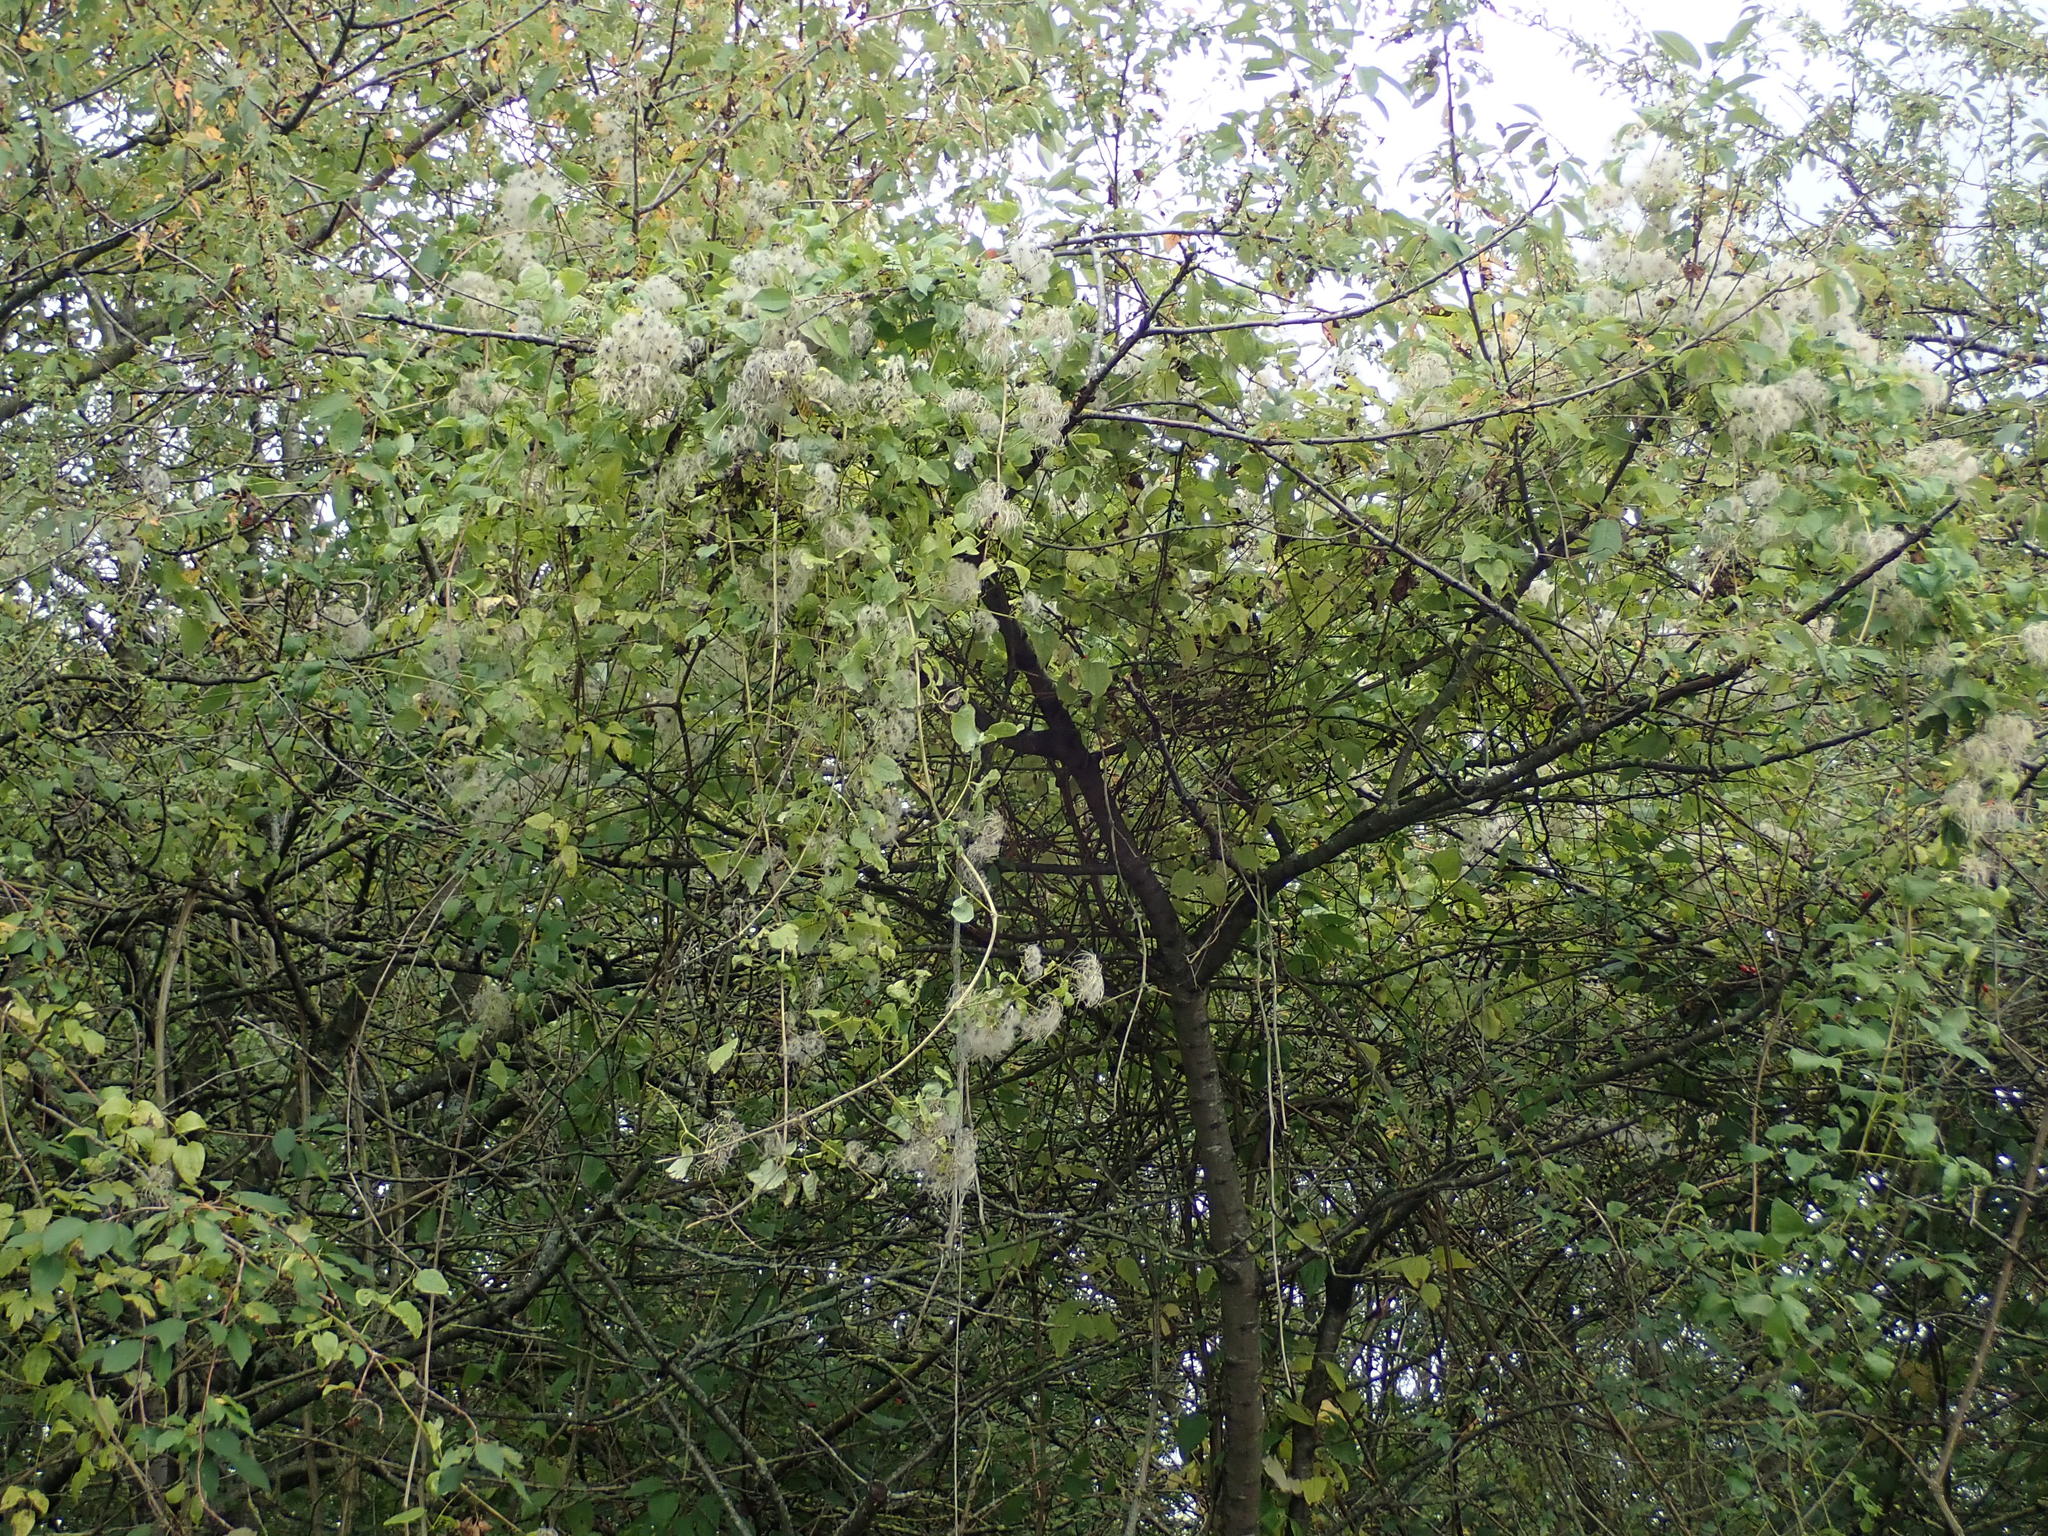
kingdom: Plantae
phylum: Tracheophyta
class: Magnoliopsida
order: Ranunculales
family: Ranunculaceae
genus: Clematis
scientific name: Clematis vitalba
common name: Evergreen clematis
